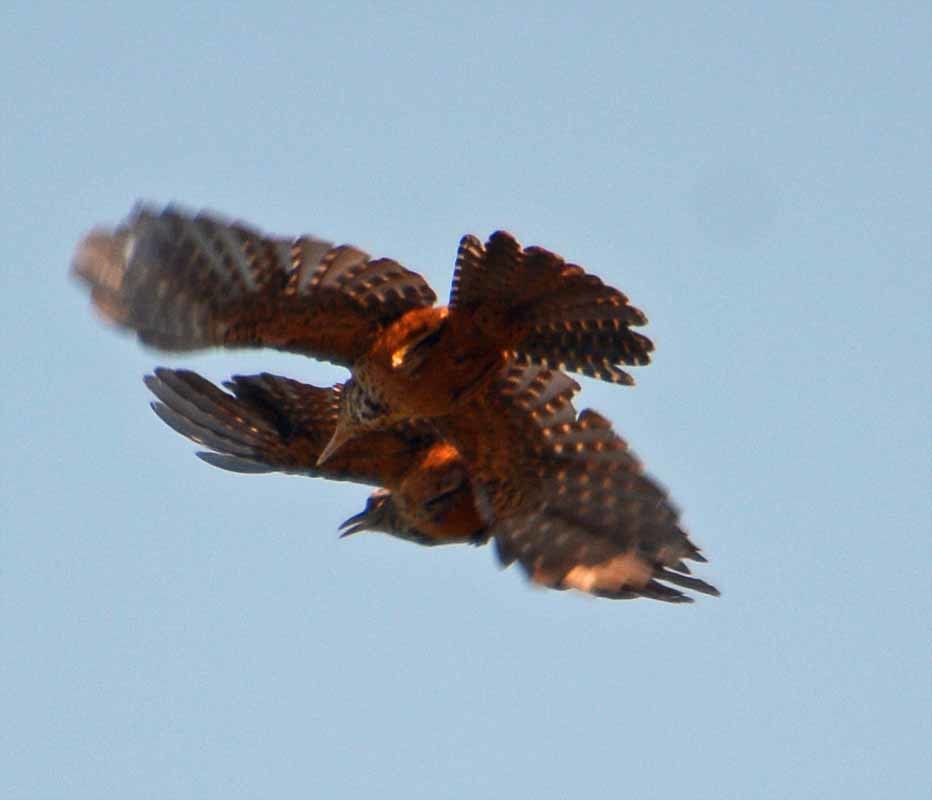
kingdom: Animalia
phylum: Chordata
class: Aves
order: Passeriformes
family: Troglodytidae
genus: Campylorhynchus
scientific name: Campylorhynchus zonatus
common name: Band-backed wren
